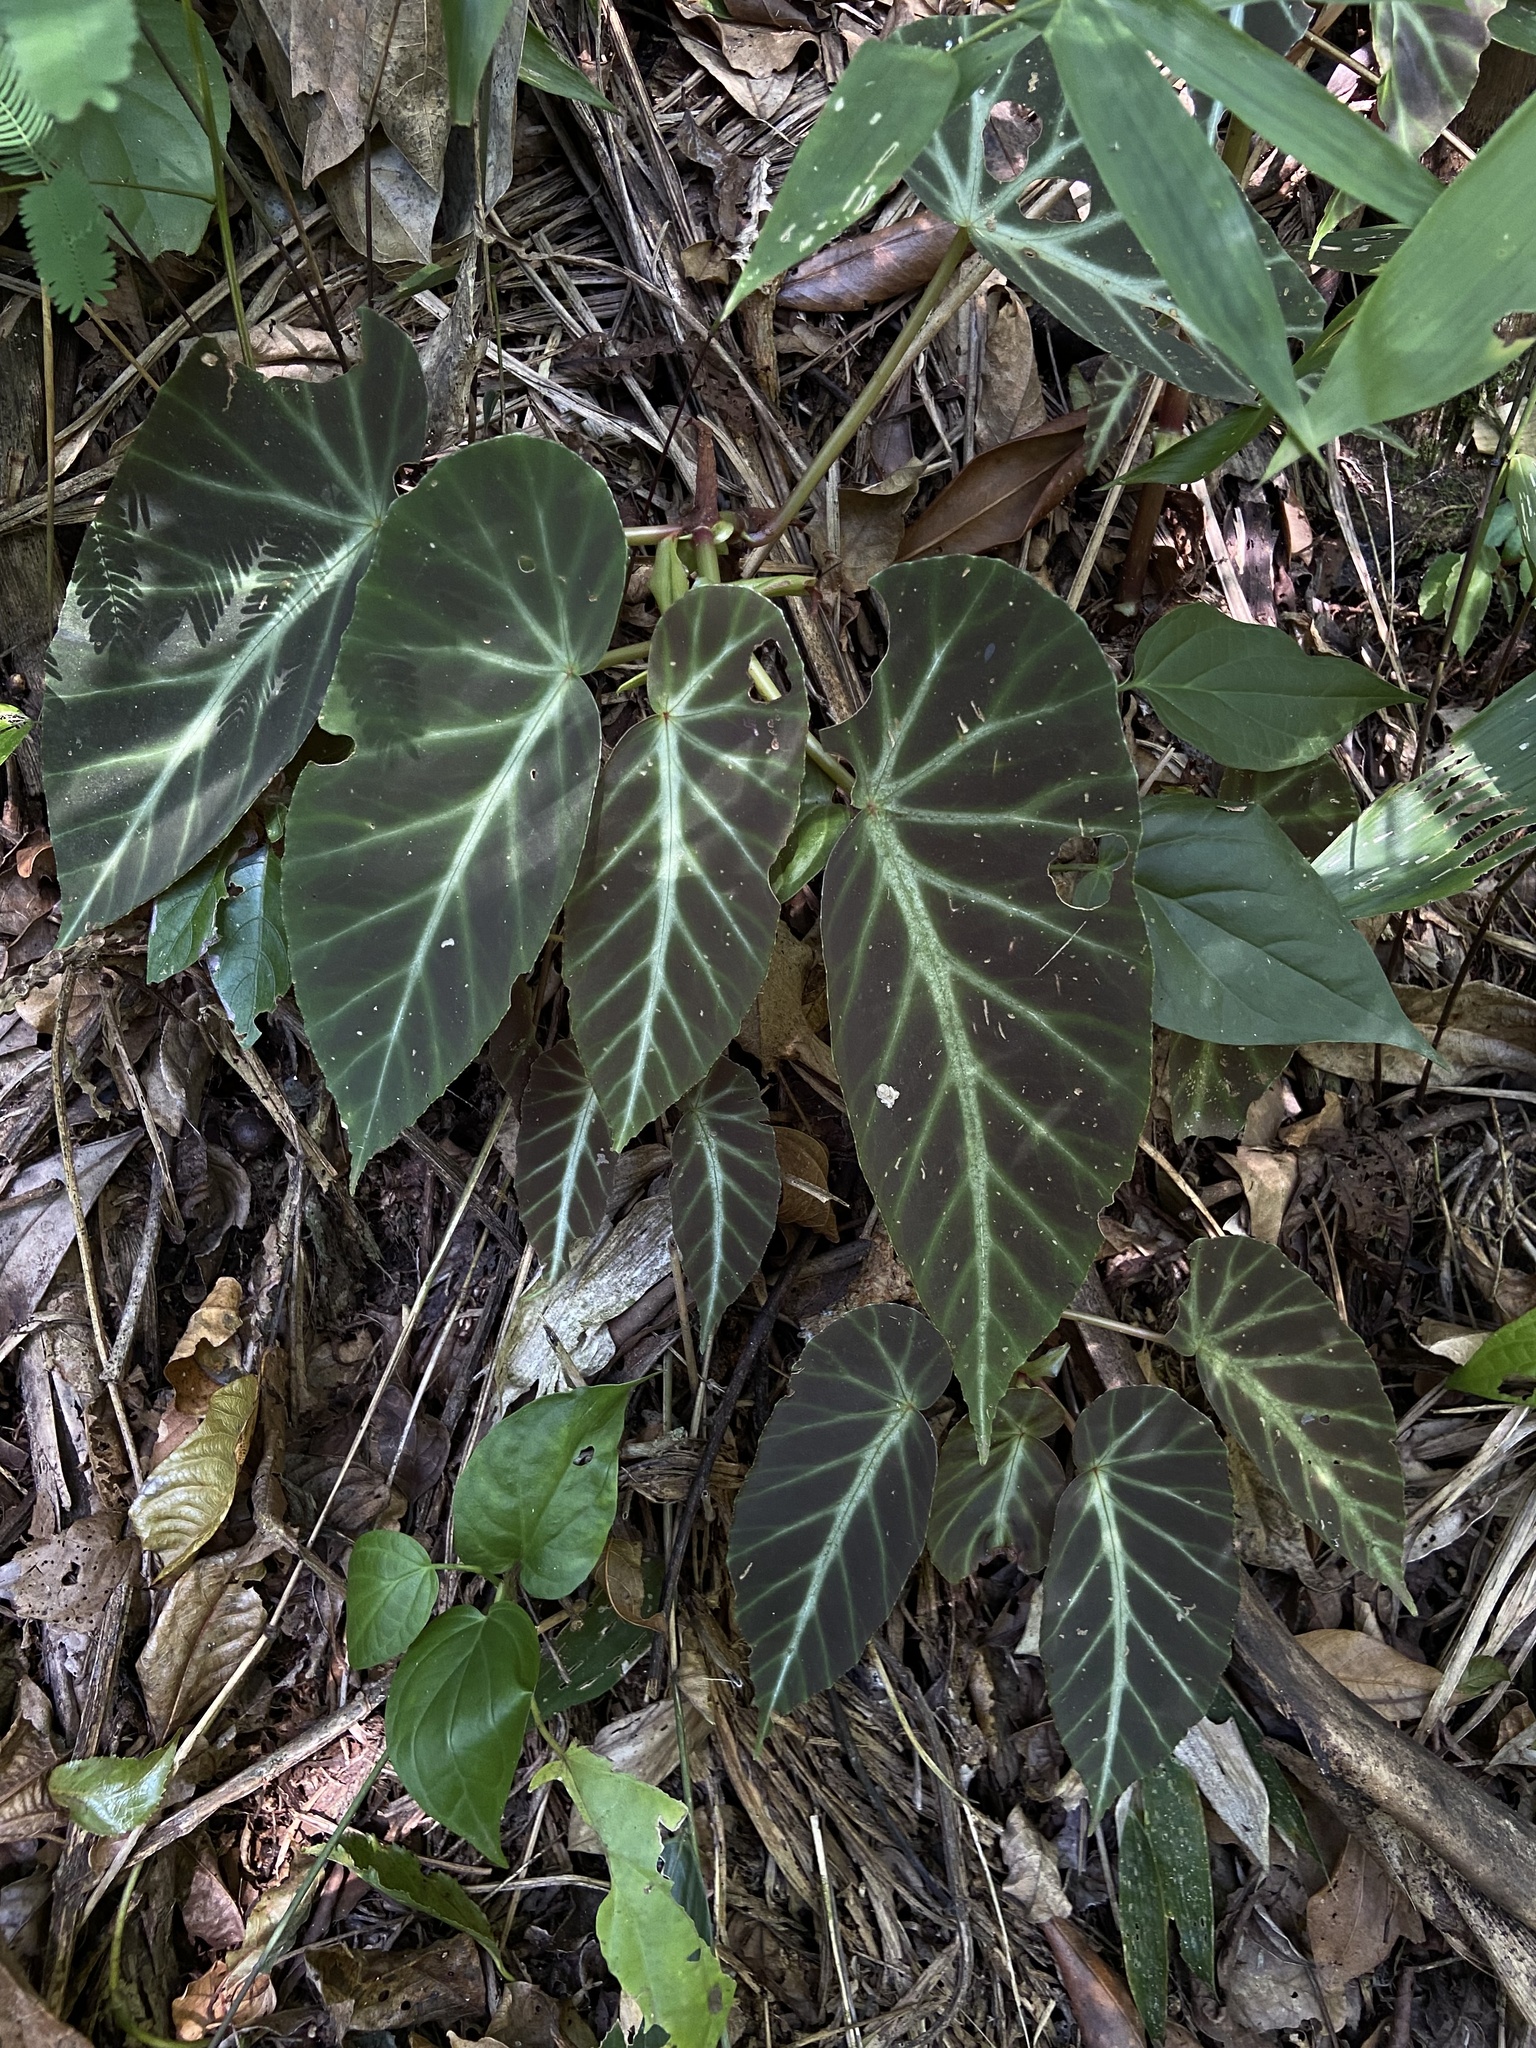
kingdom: Plantae
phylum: Tracheophyta
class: Magnoliopsida
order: Cucurbitales
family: Begoniaceae
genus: Begonia
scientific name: Begonia angularis
